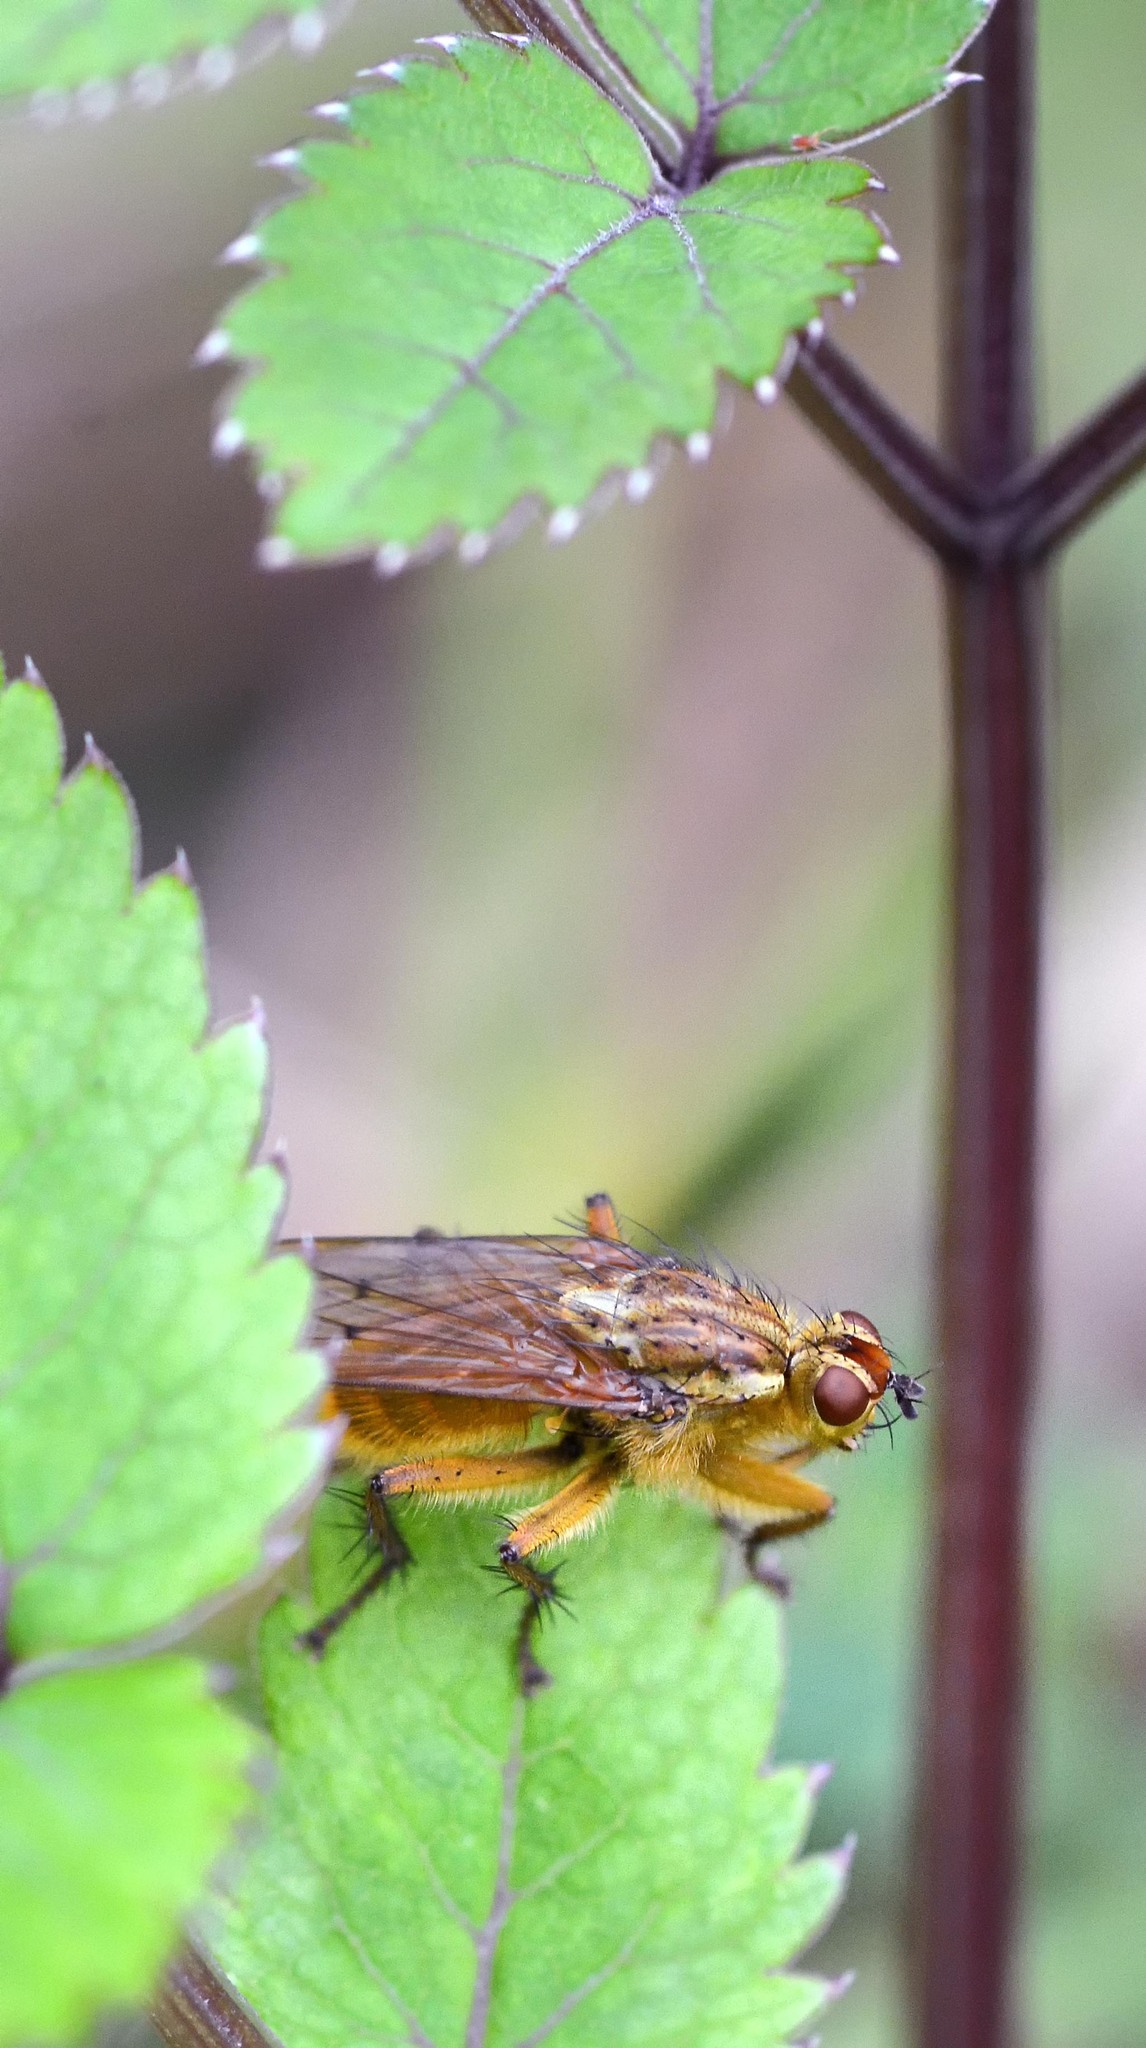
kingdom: Animalia
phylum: Arthropoda
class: Insecta
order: Diptera
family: Scathophagidae
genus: Scathophaga
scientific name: Scathophaga stercoraria
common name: Yellow dung fly
